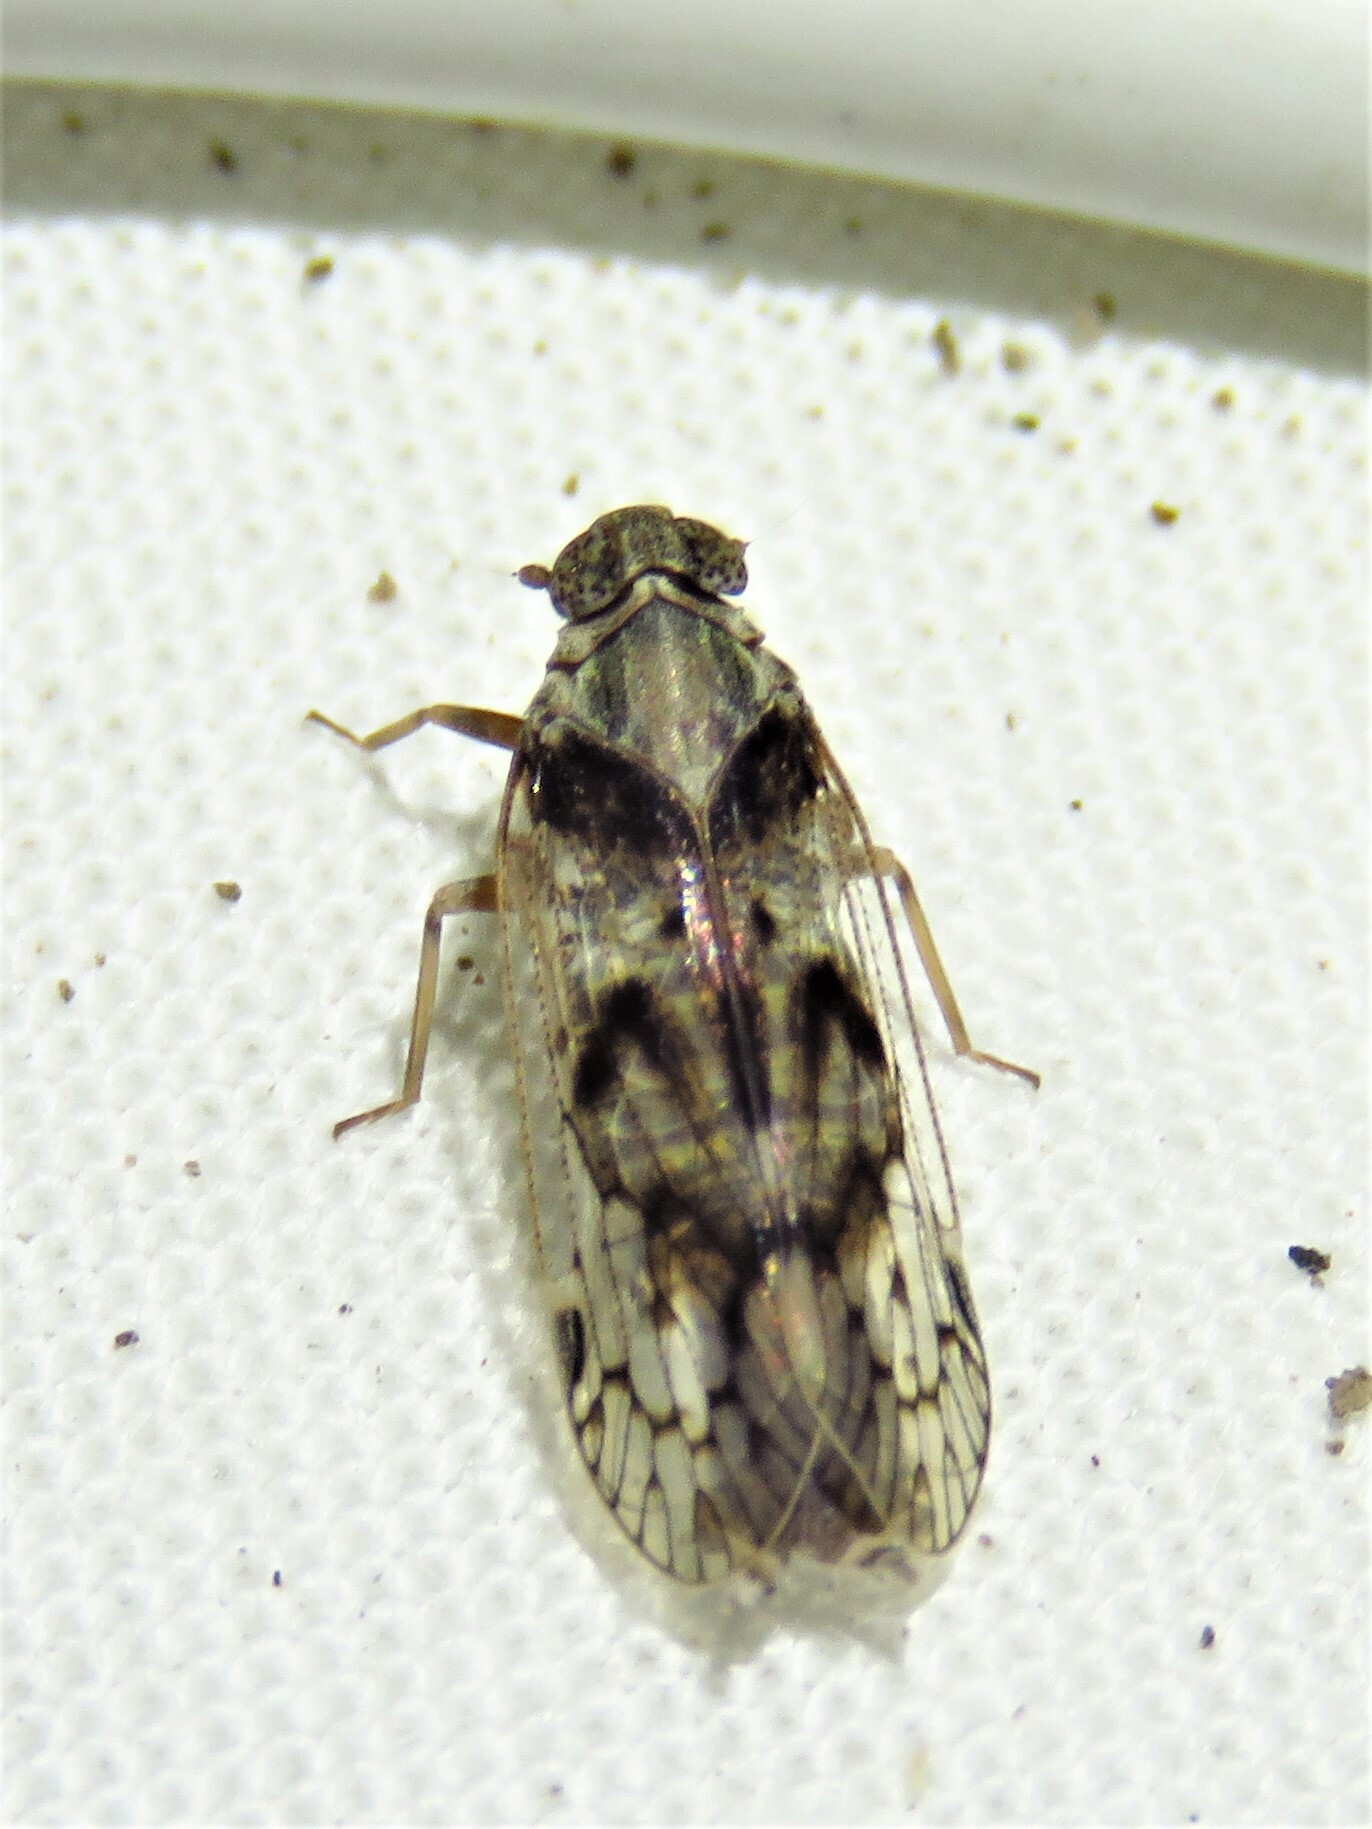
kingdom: Animalia
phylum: Arthropoda
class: Insecta
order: Hemiptera
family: Cixiidae
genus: Melanoliarus
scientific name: Melanoliarus aridus
